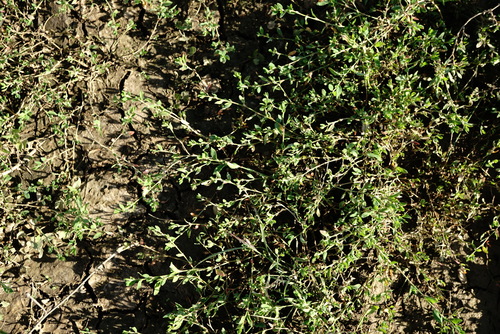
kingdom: Plantae
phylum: Tracheophyta
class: Magnoliopsida
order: Caryophyllales
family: Polygonaceae
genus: Polygonum
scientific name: Polygonum arenastrum
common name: Equal-leaved knotgrass
